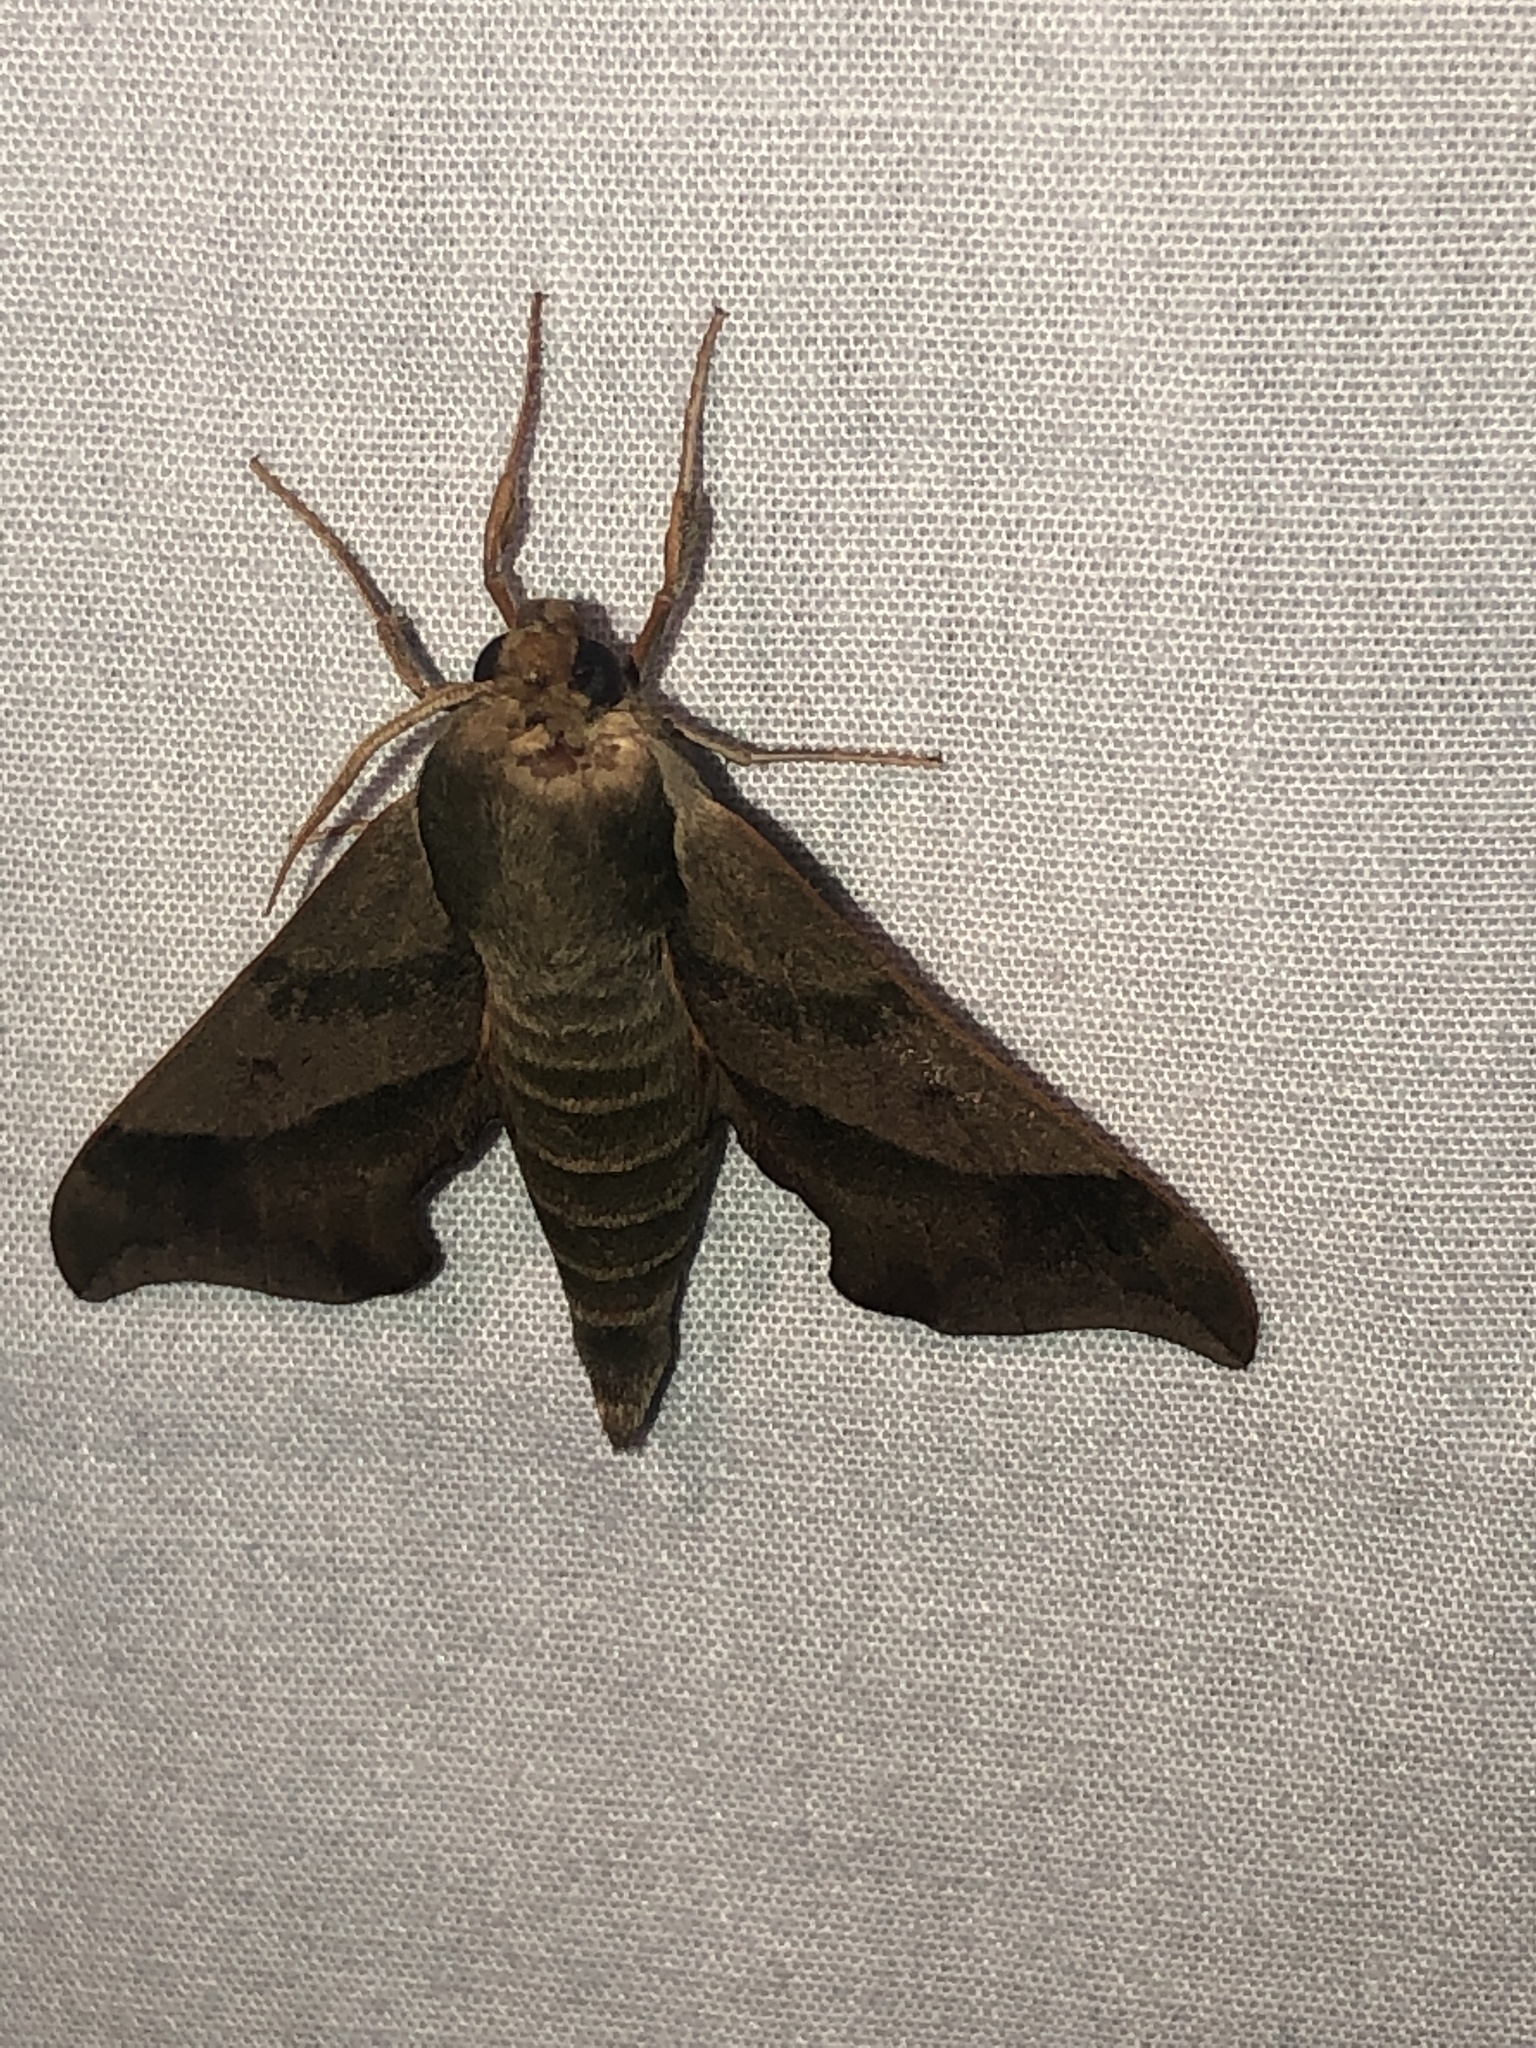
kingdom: Animalia
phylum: Arthropoda
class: Insecta
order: Lepidoptera
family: Sphingidae
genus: Darapsa
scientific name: Darapsa myron
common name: Hog sphinx
